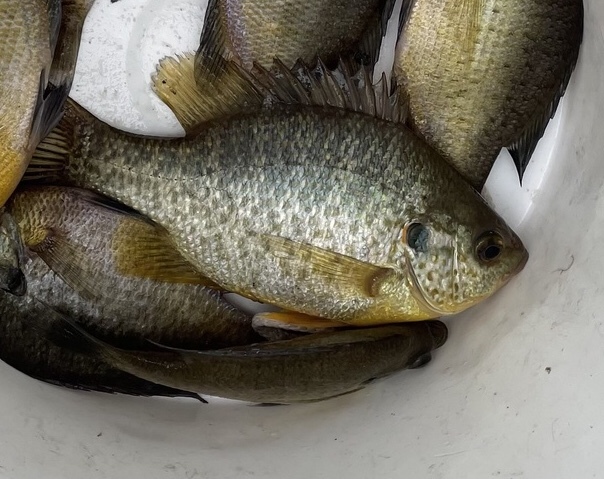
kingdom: Animalia
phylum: Chordata
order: Perciformes
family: Centrarchidae
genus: Lepomis
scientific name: Lepomis microlophus
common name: Redear sunfish
